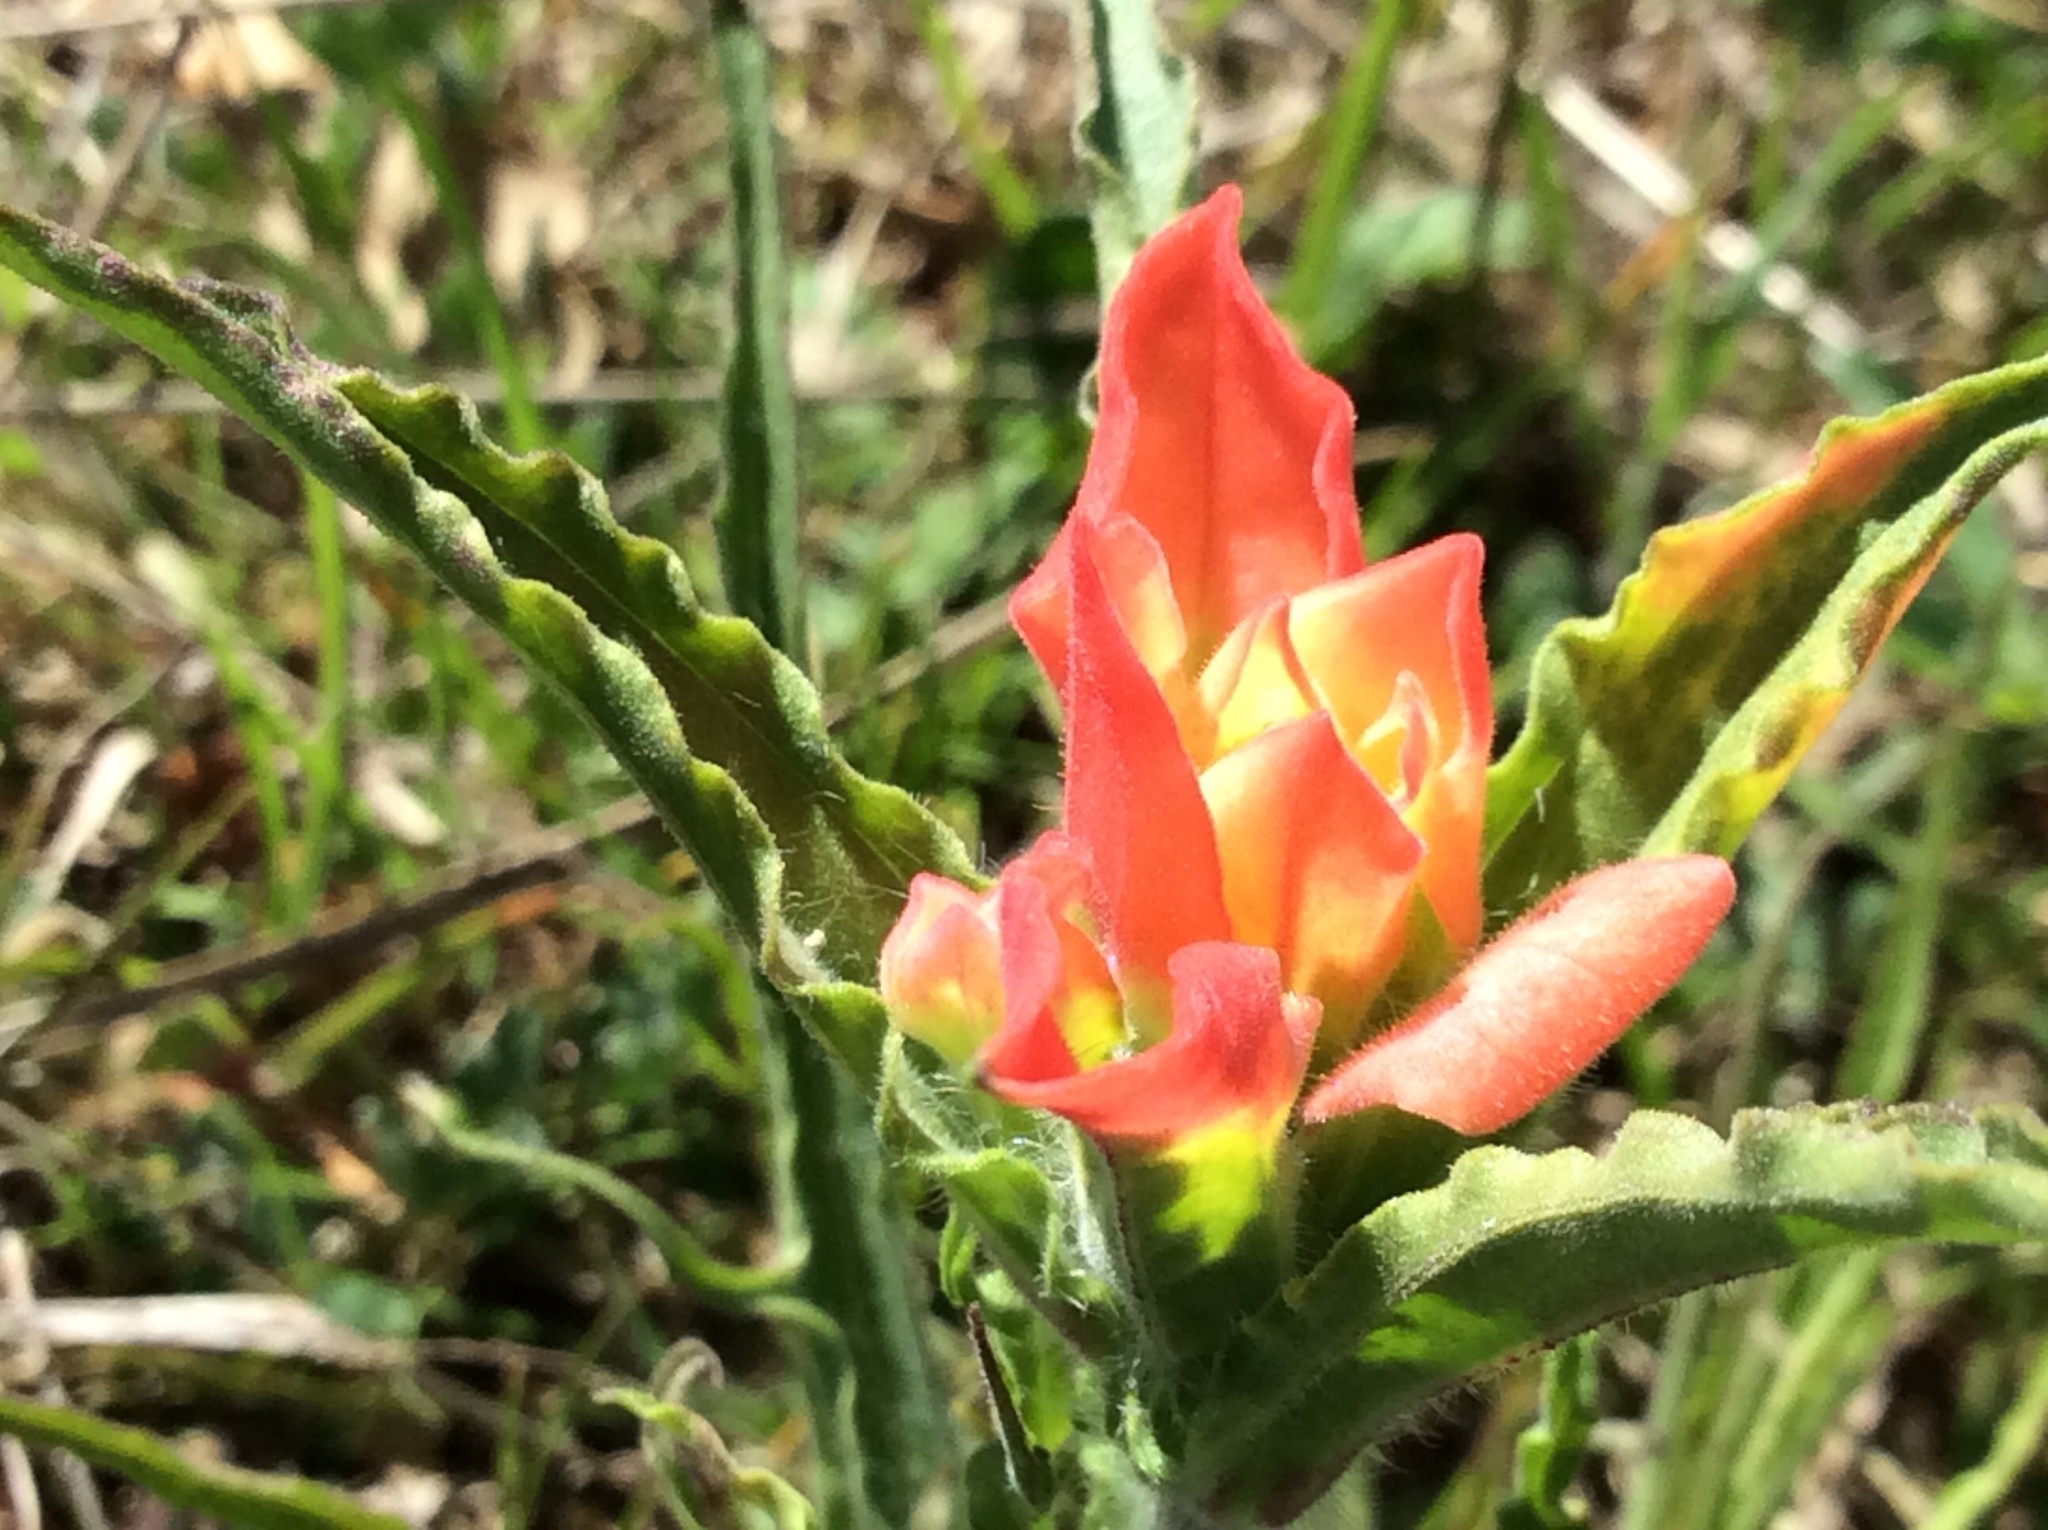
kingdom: Plantae
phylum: Tracheophyta
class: Magnoliopsida
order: Lamiales
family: Orobanchaceae
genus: Castilleja
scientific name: Castilleja indivisa
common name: Texas paintbrush
